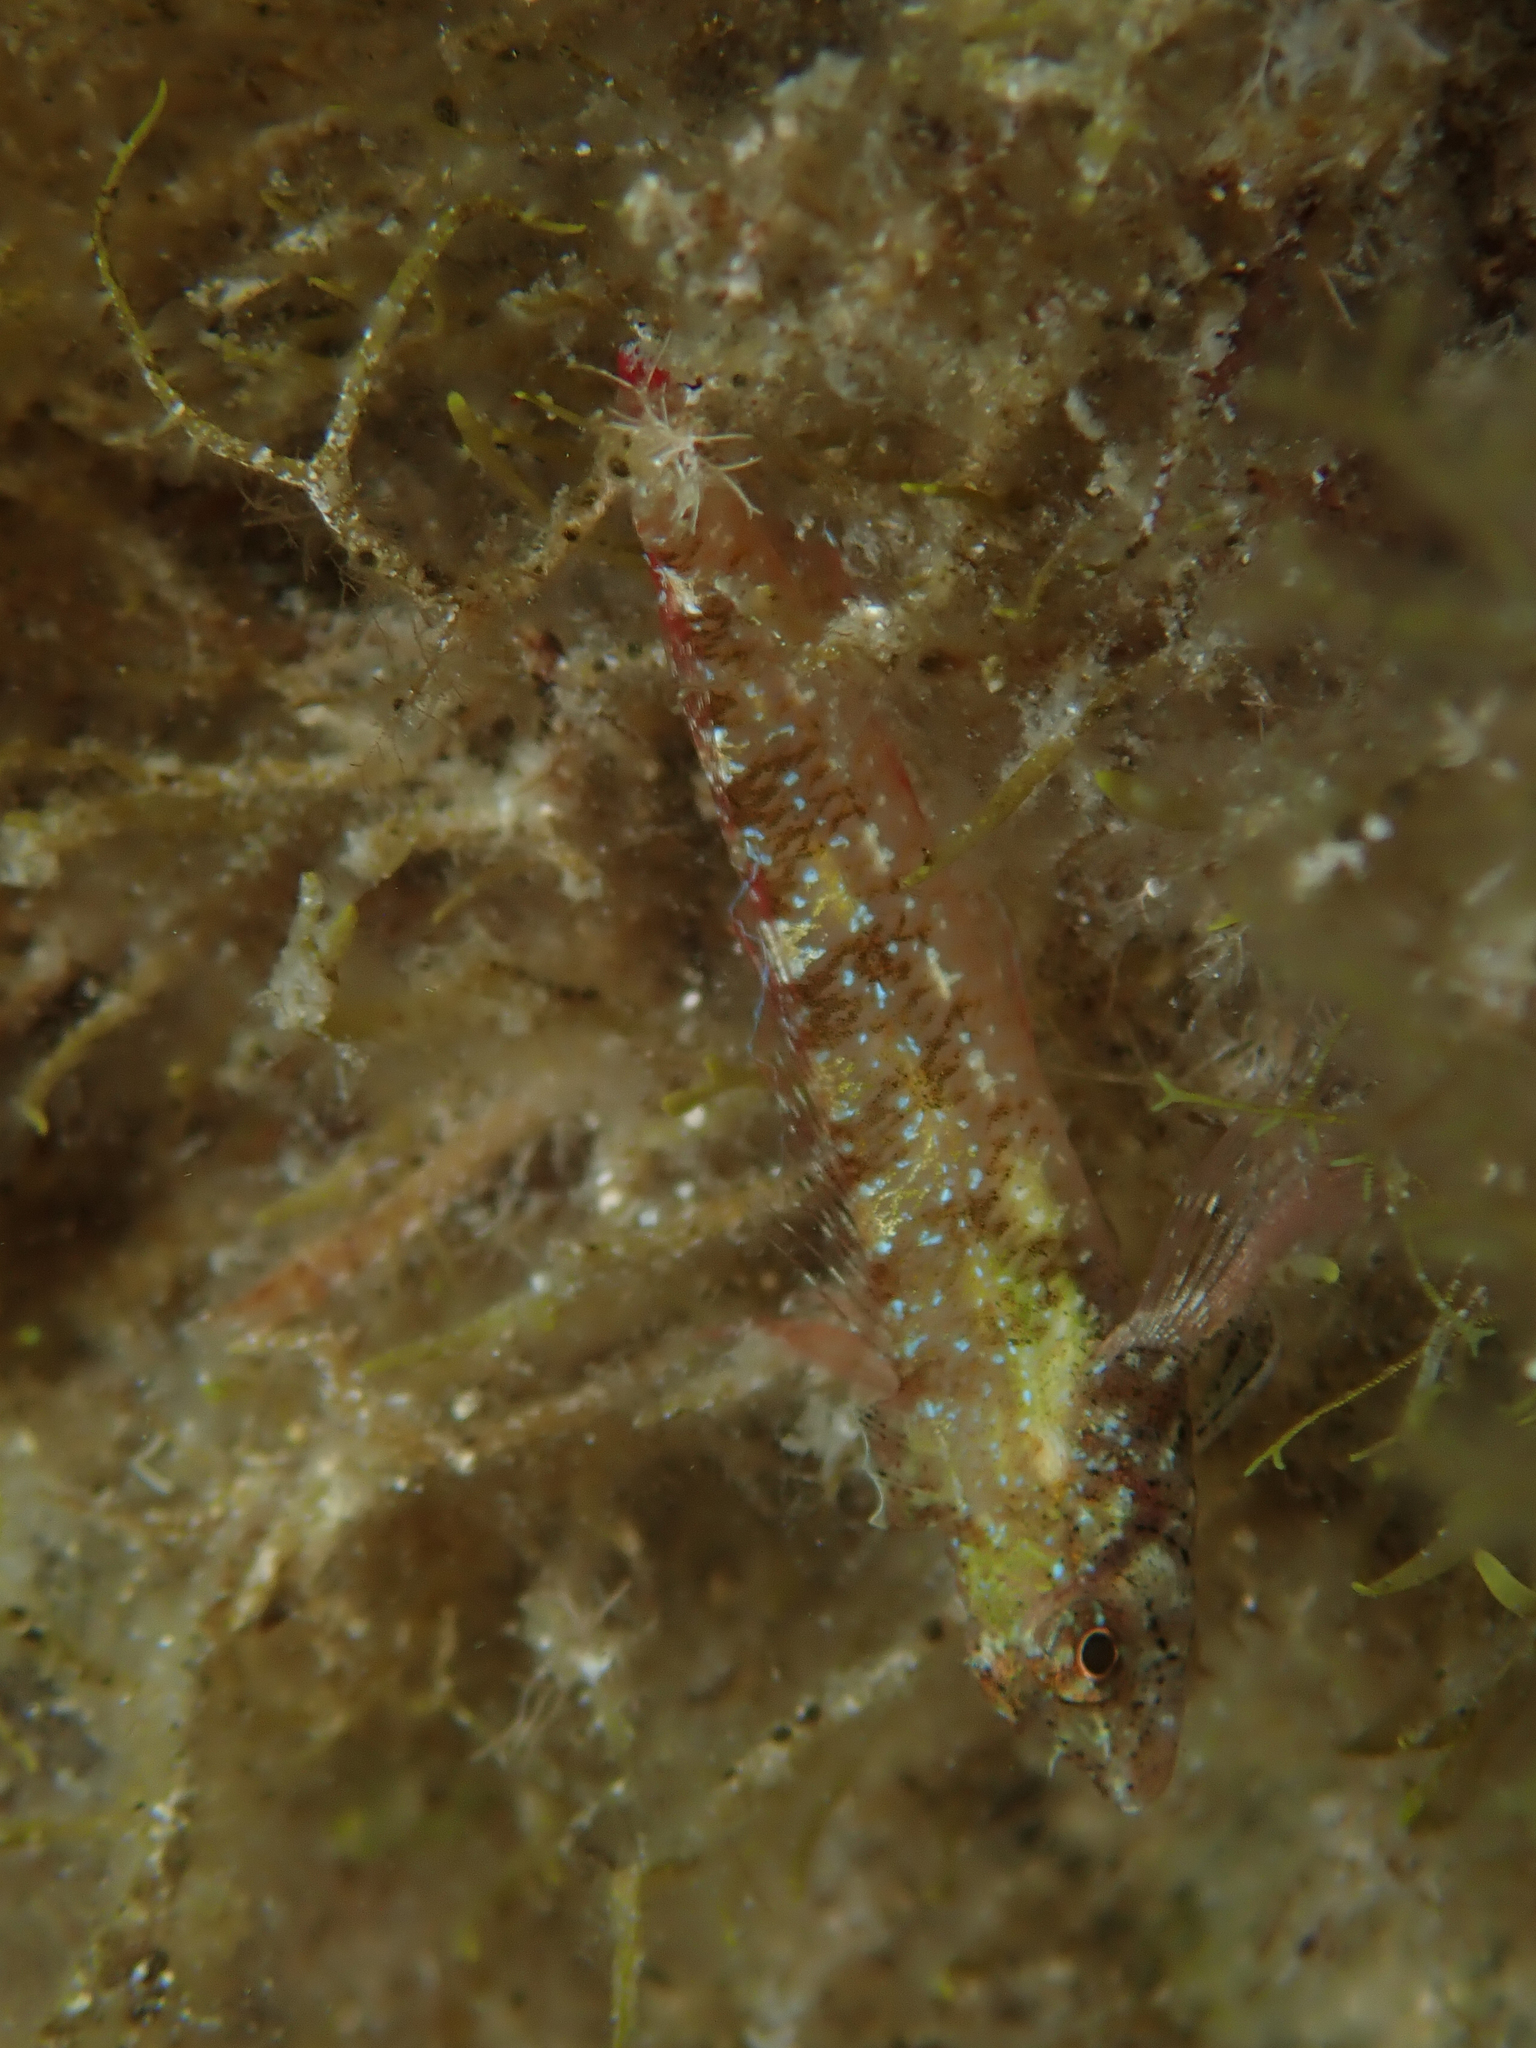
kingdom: Animalia
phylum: Chordata
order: Perciformes
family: Tripterygiidae
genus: Tripterygion
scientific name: Tripterygion tripteronotum
